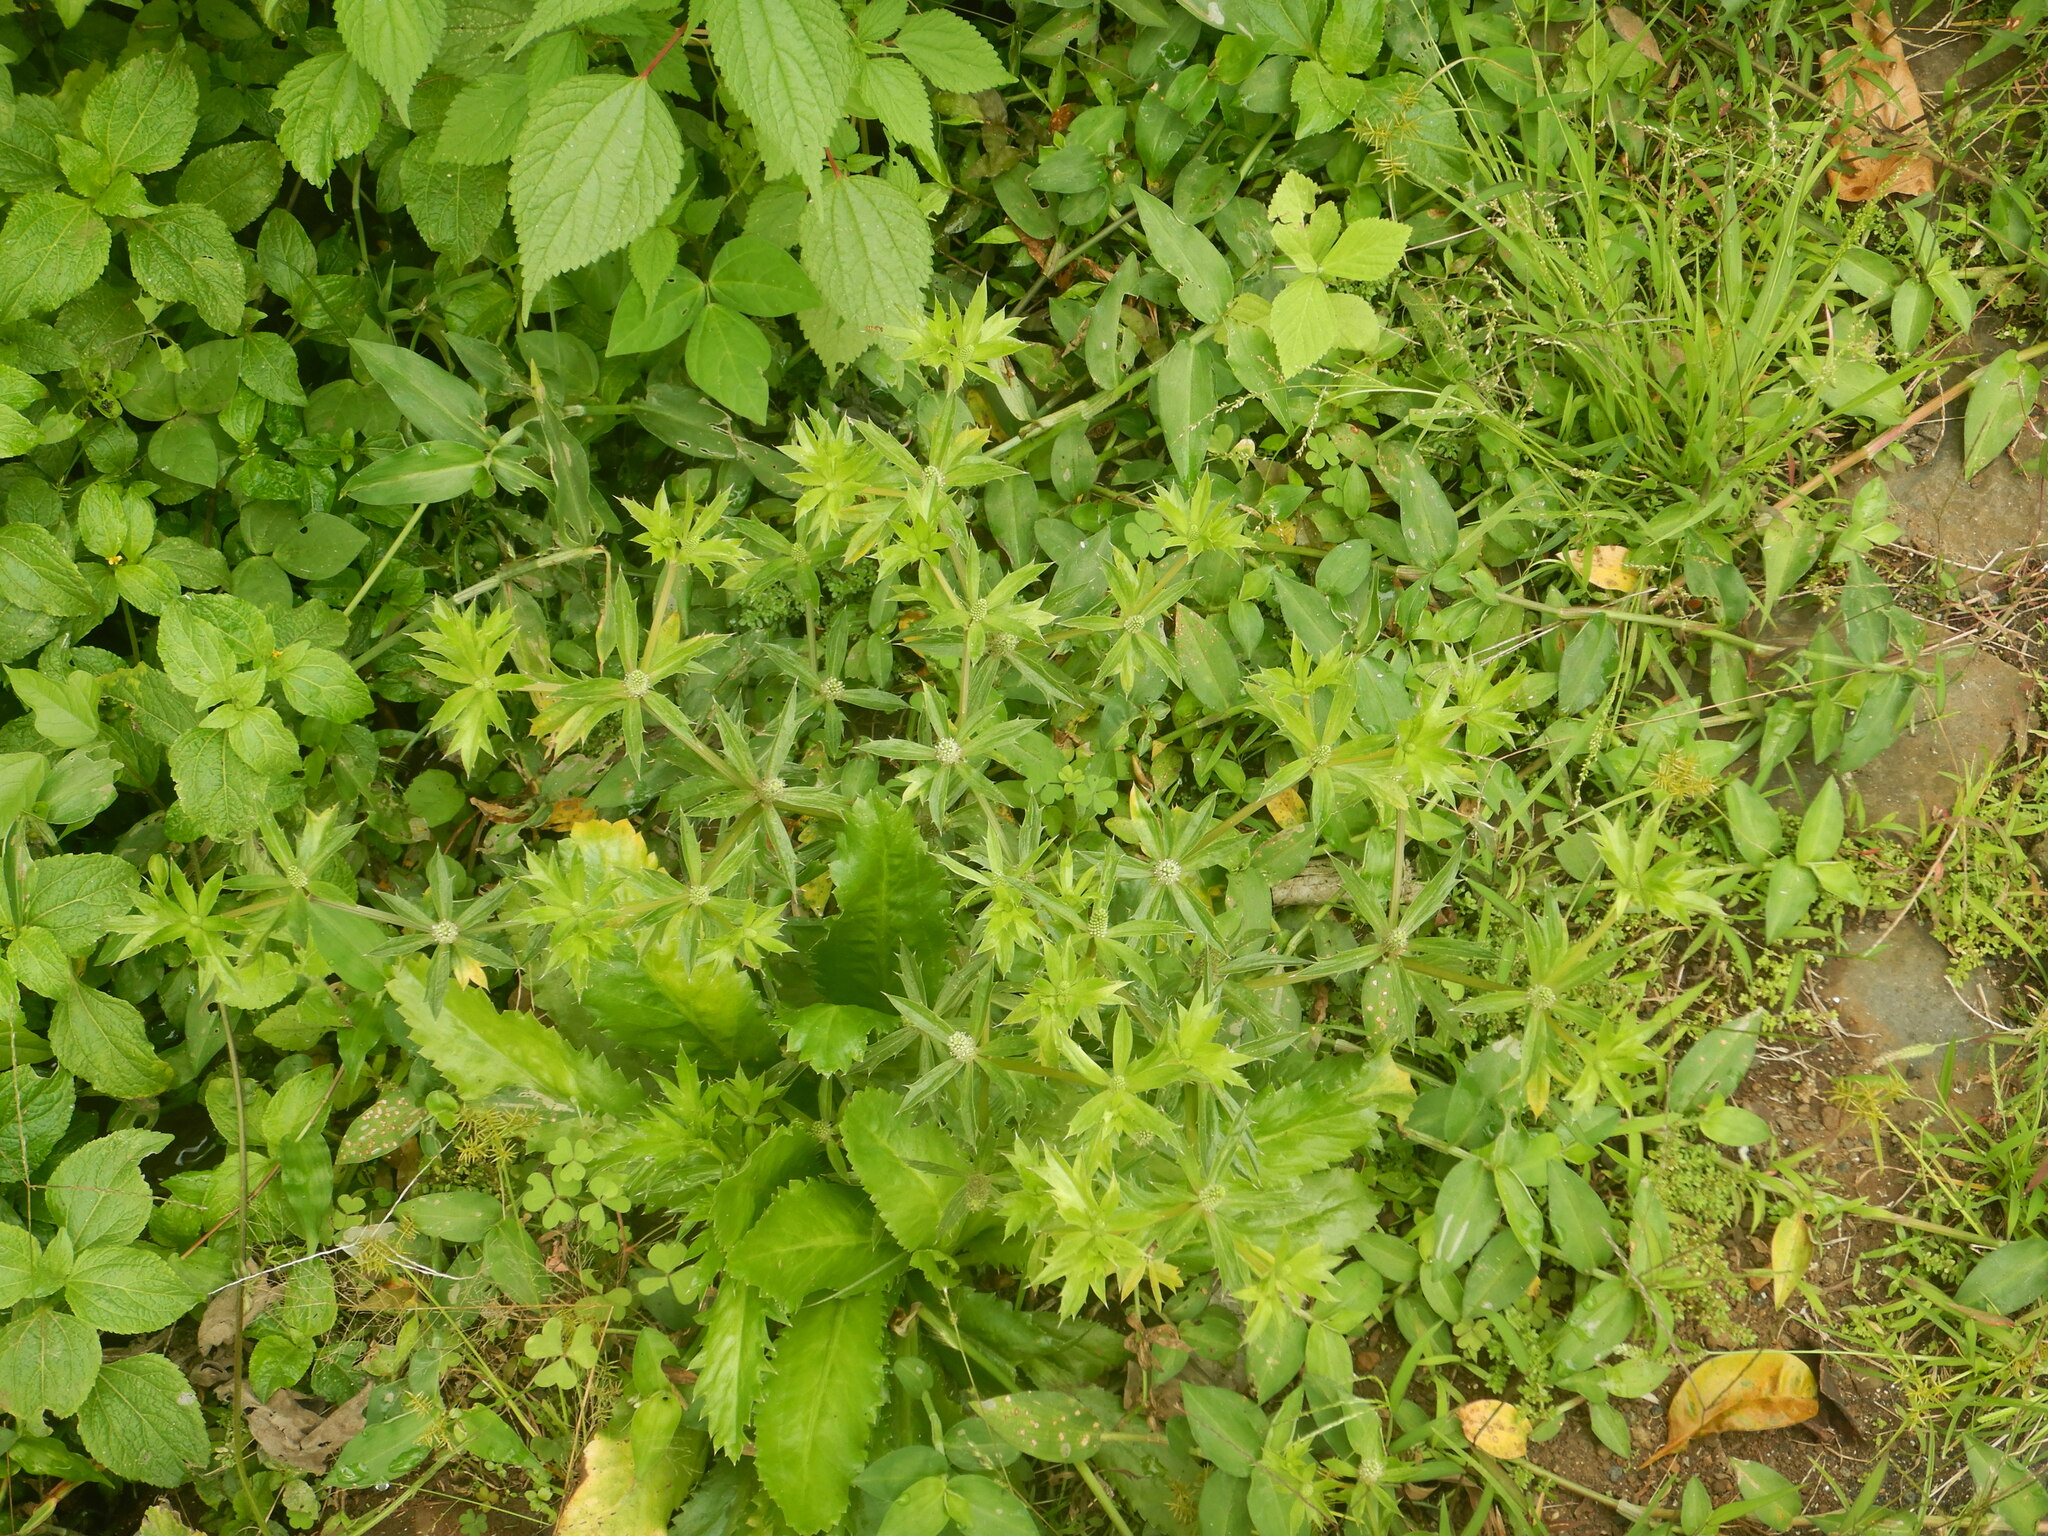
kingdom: Plantae
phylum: Tracheophyta
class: Magnoliopsida
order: Apiales
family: Apiaceae
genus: Eryngium
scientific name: Eryngium foetidum
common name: Fitweed
